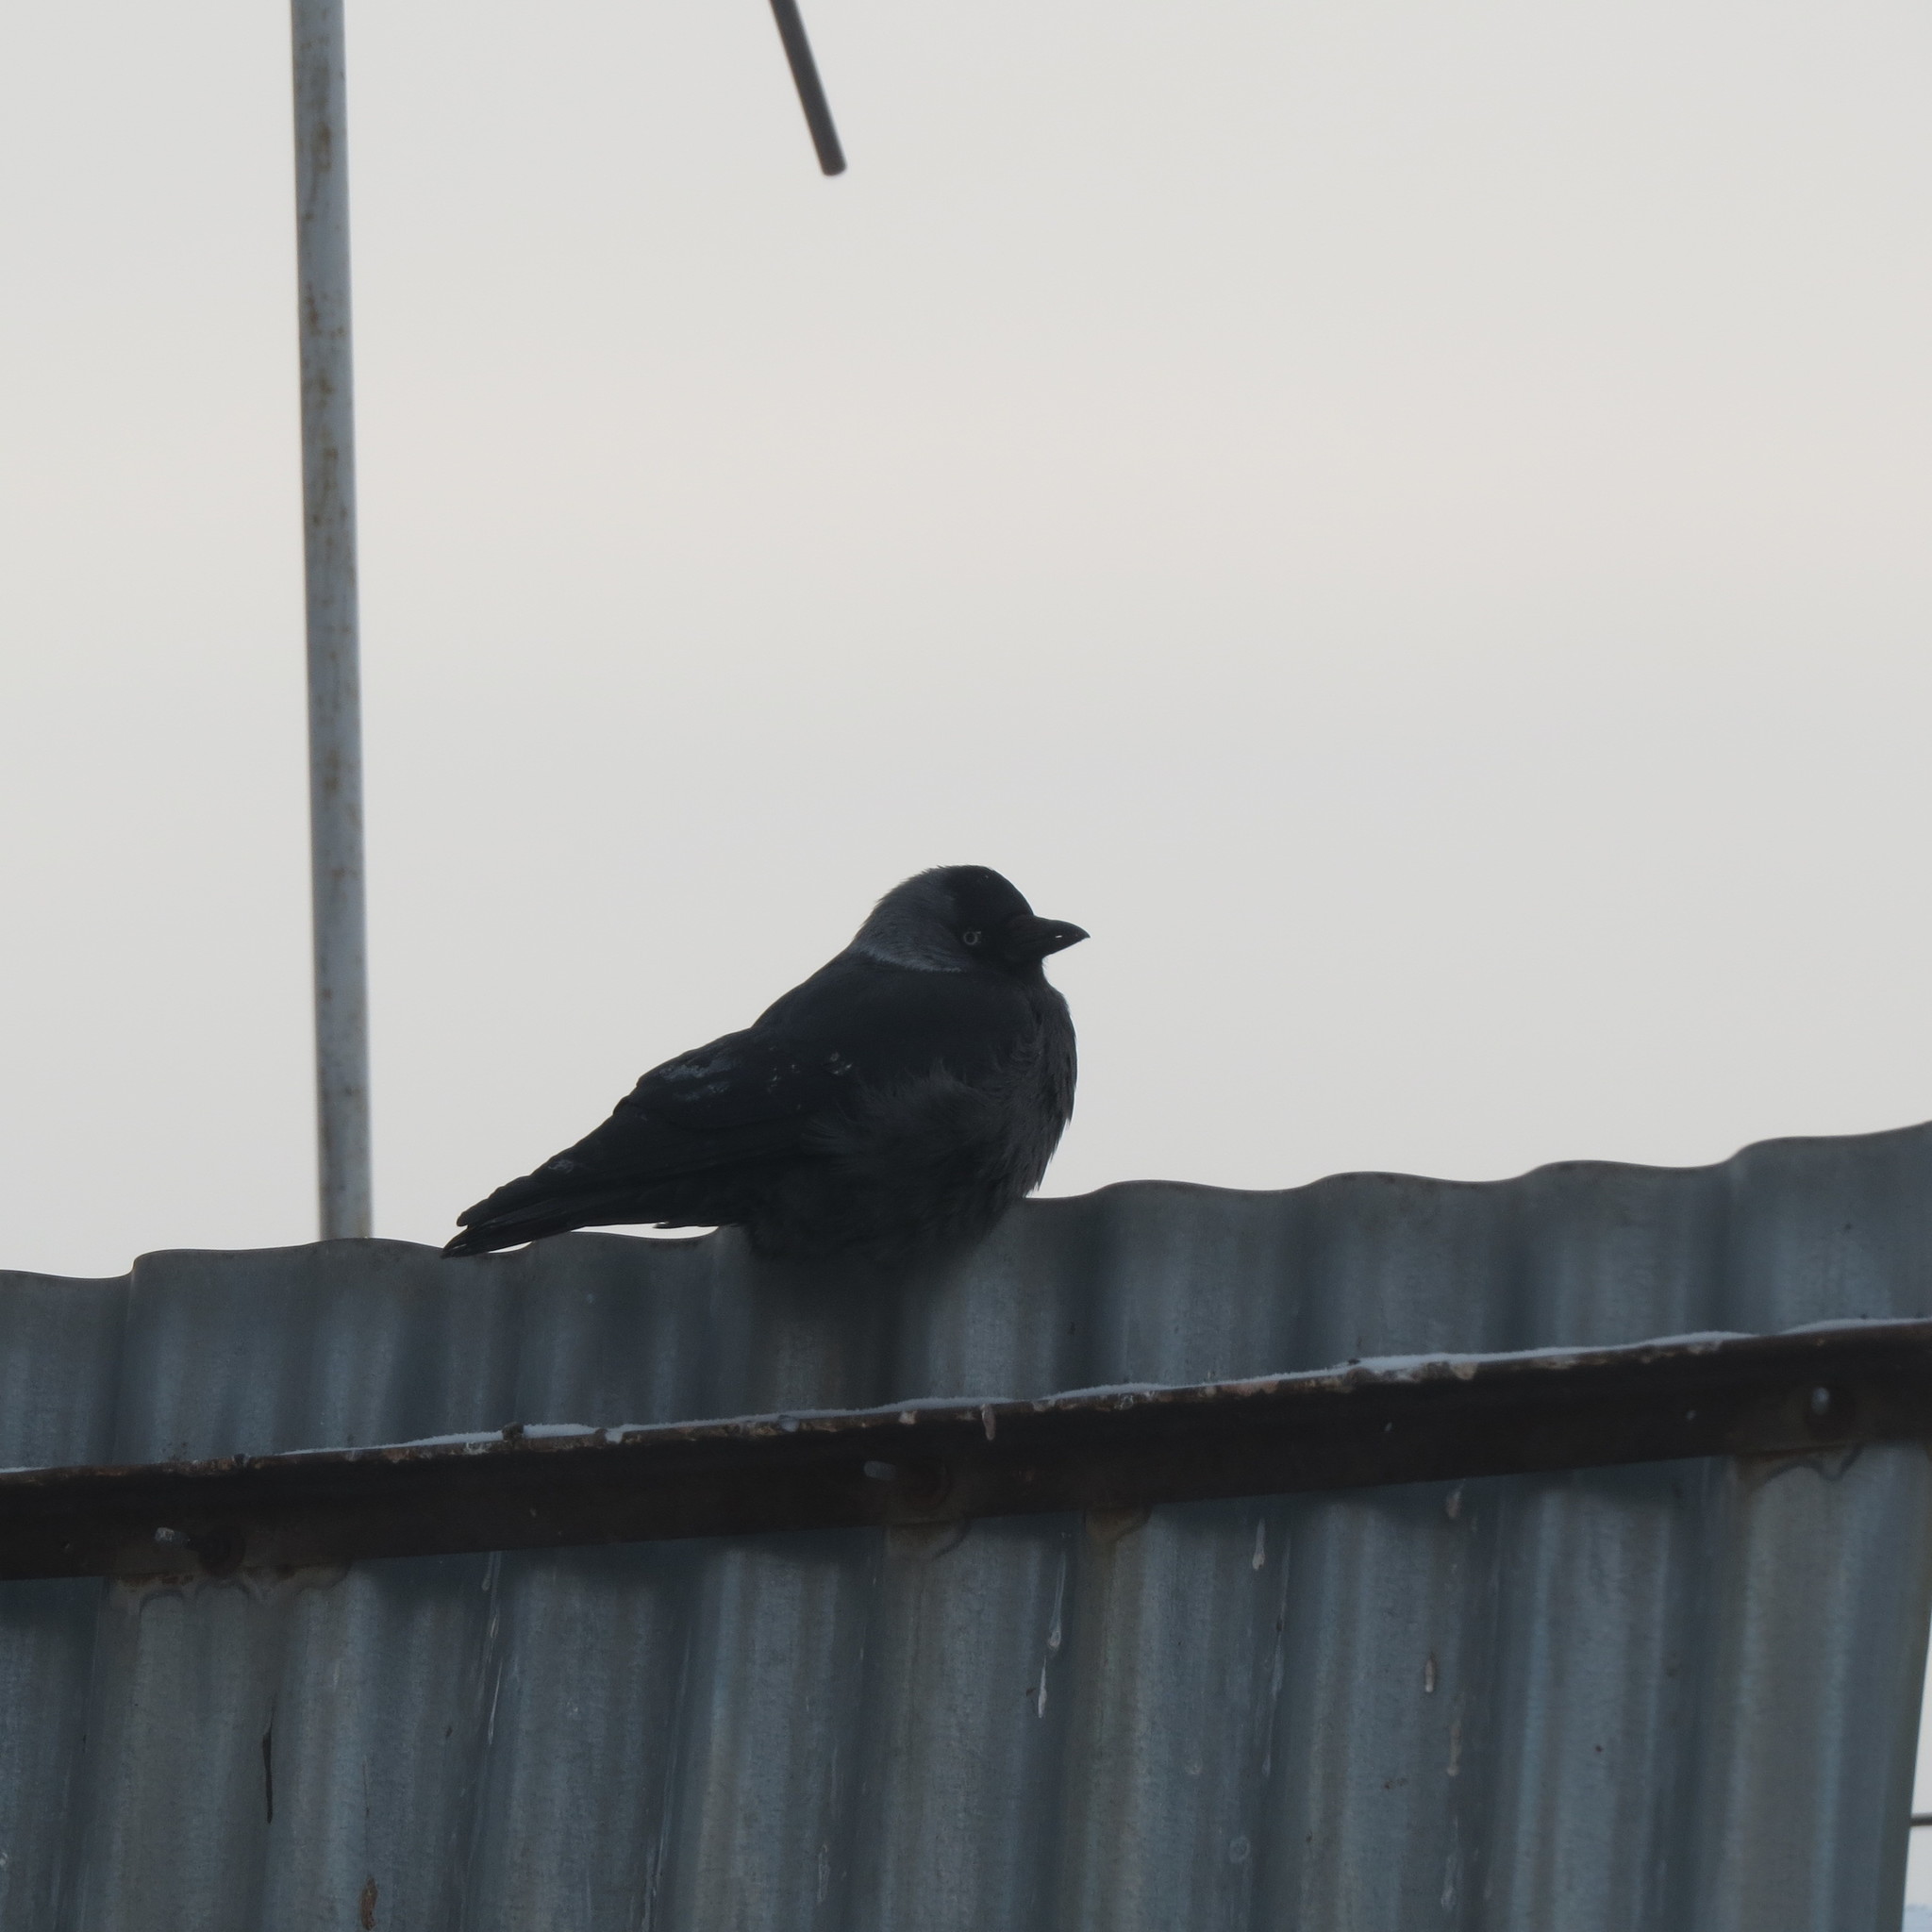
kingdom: Animalia
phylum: Chordata
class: Aves
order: Passeriformes
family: Corvidae
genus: Coloeus
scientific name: Coloeus monedula
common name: Western jackdaw
